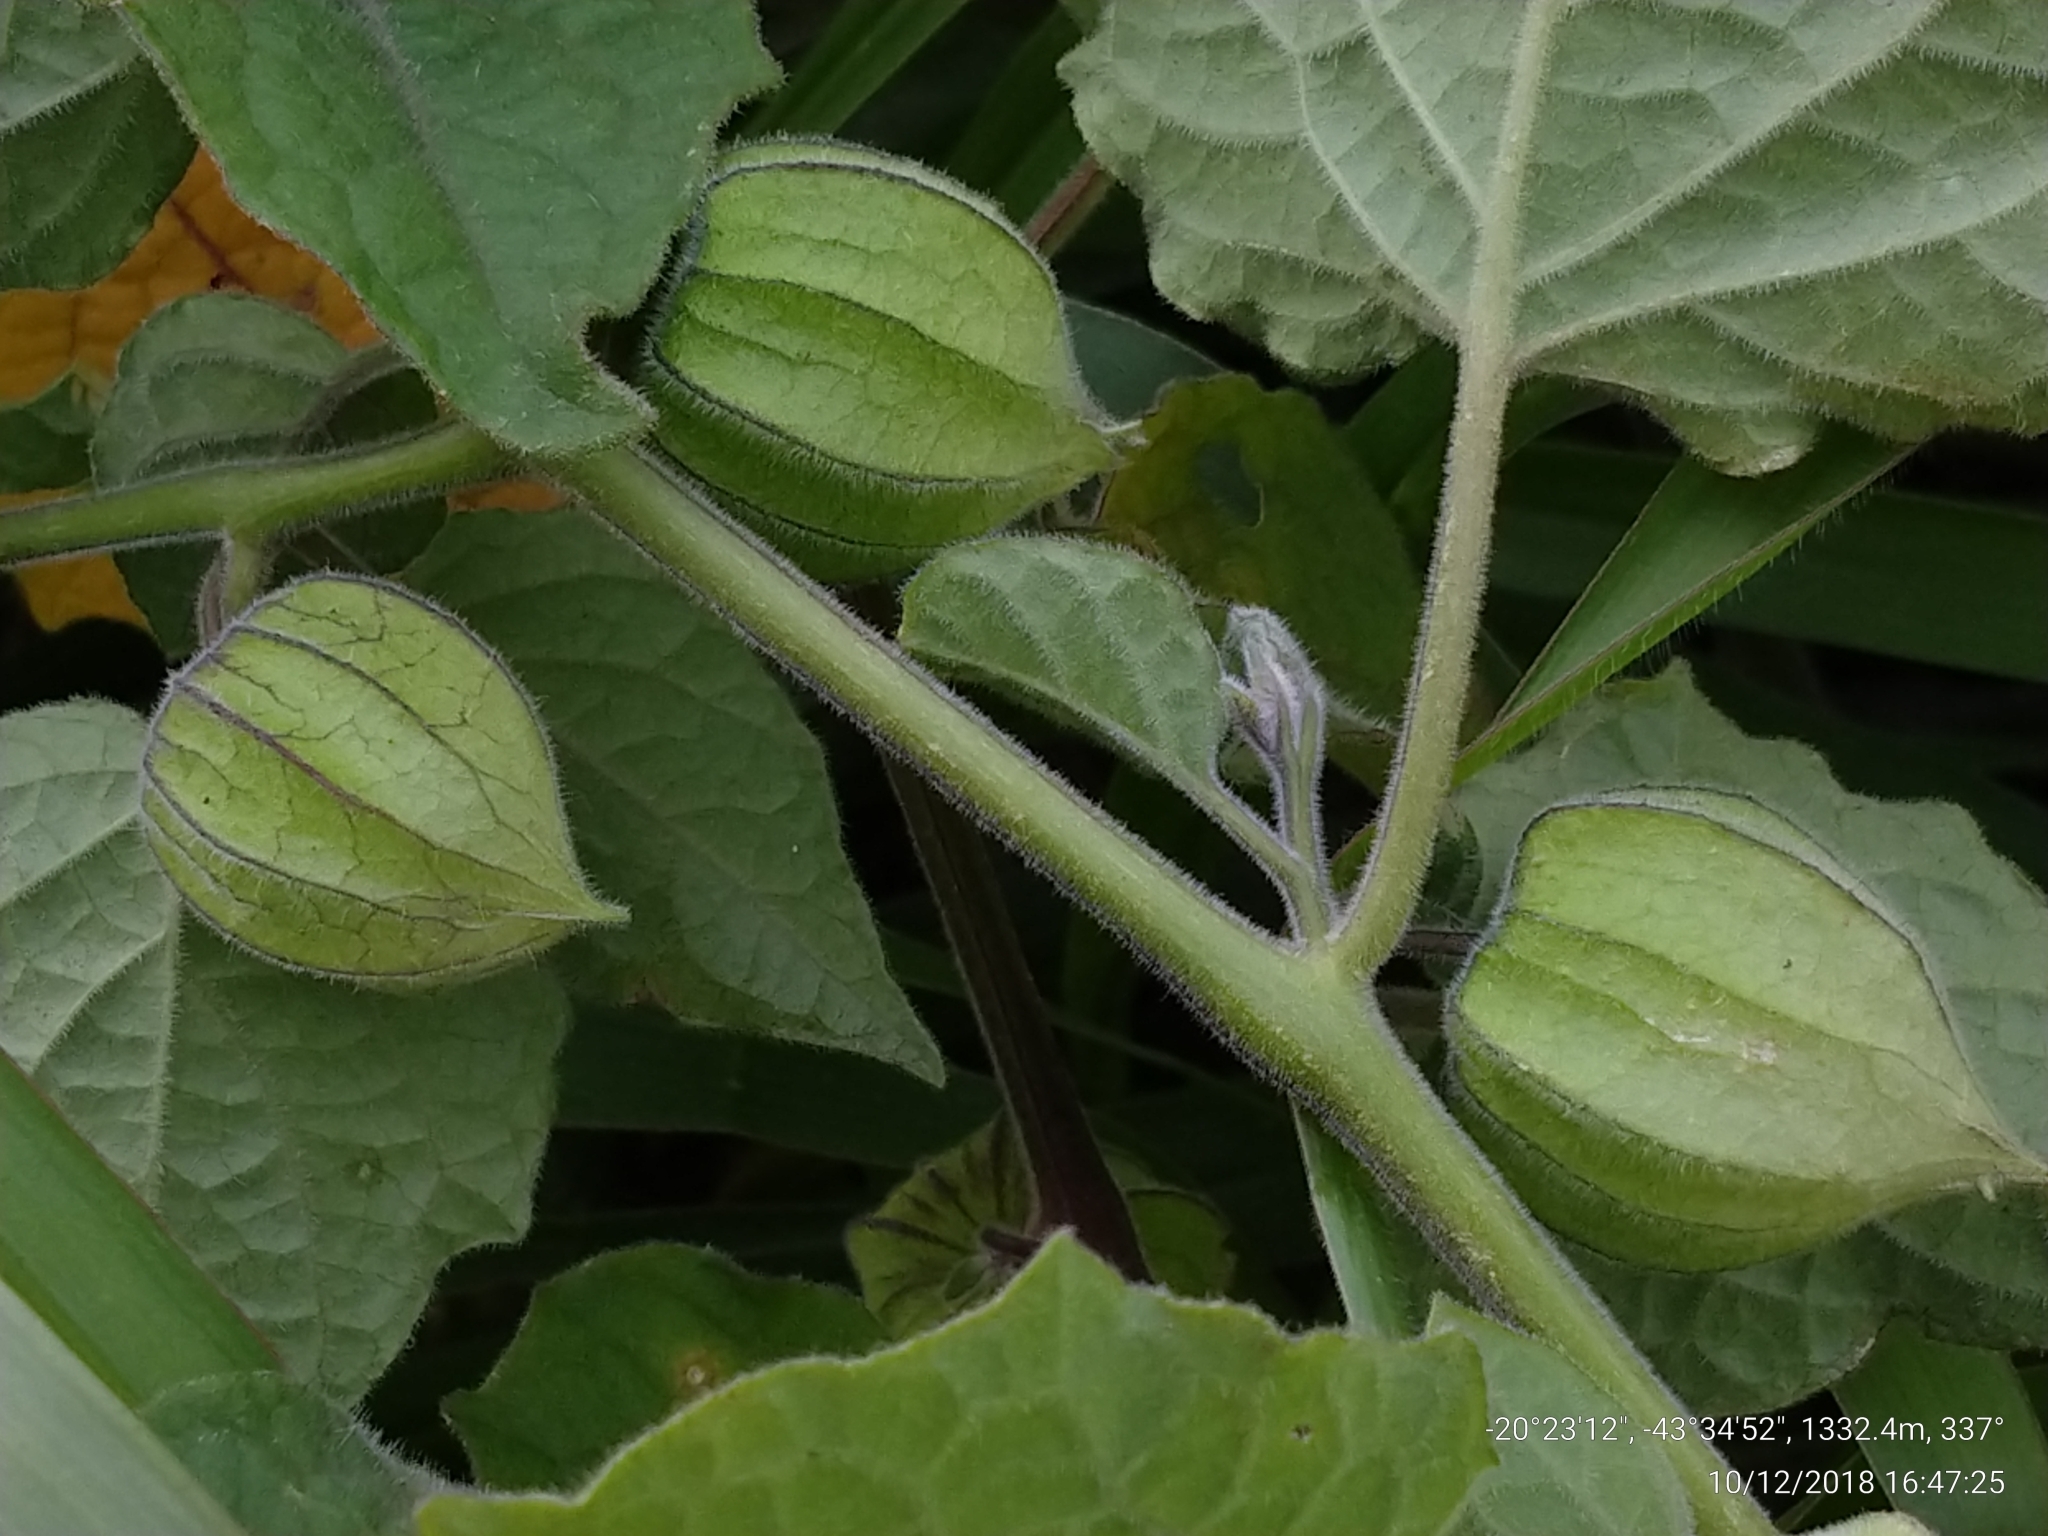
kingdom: Plantae
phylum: Tracheophyta
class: Magnoliopsida
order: Solanales
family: Solanaceae
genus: Physalis
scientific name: Physalis peruviana
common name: Cape-gooseberry
